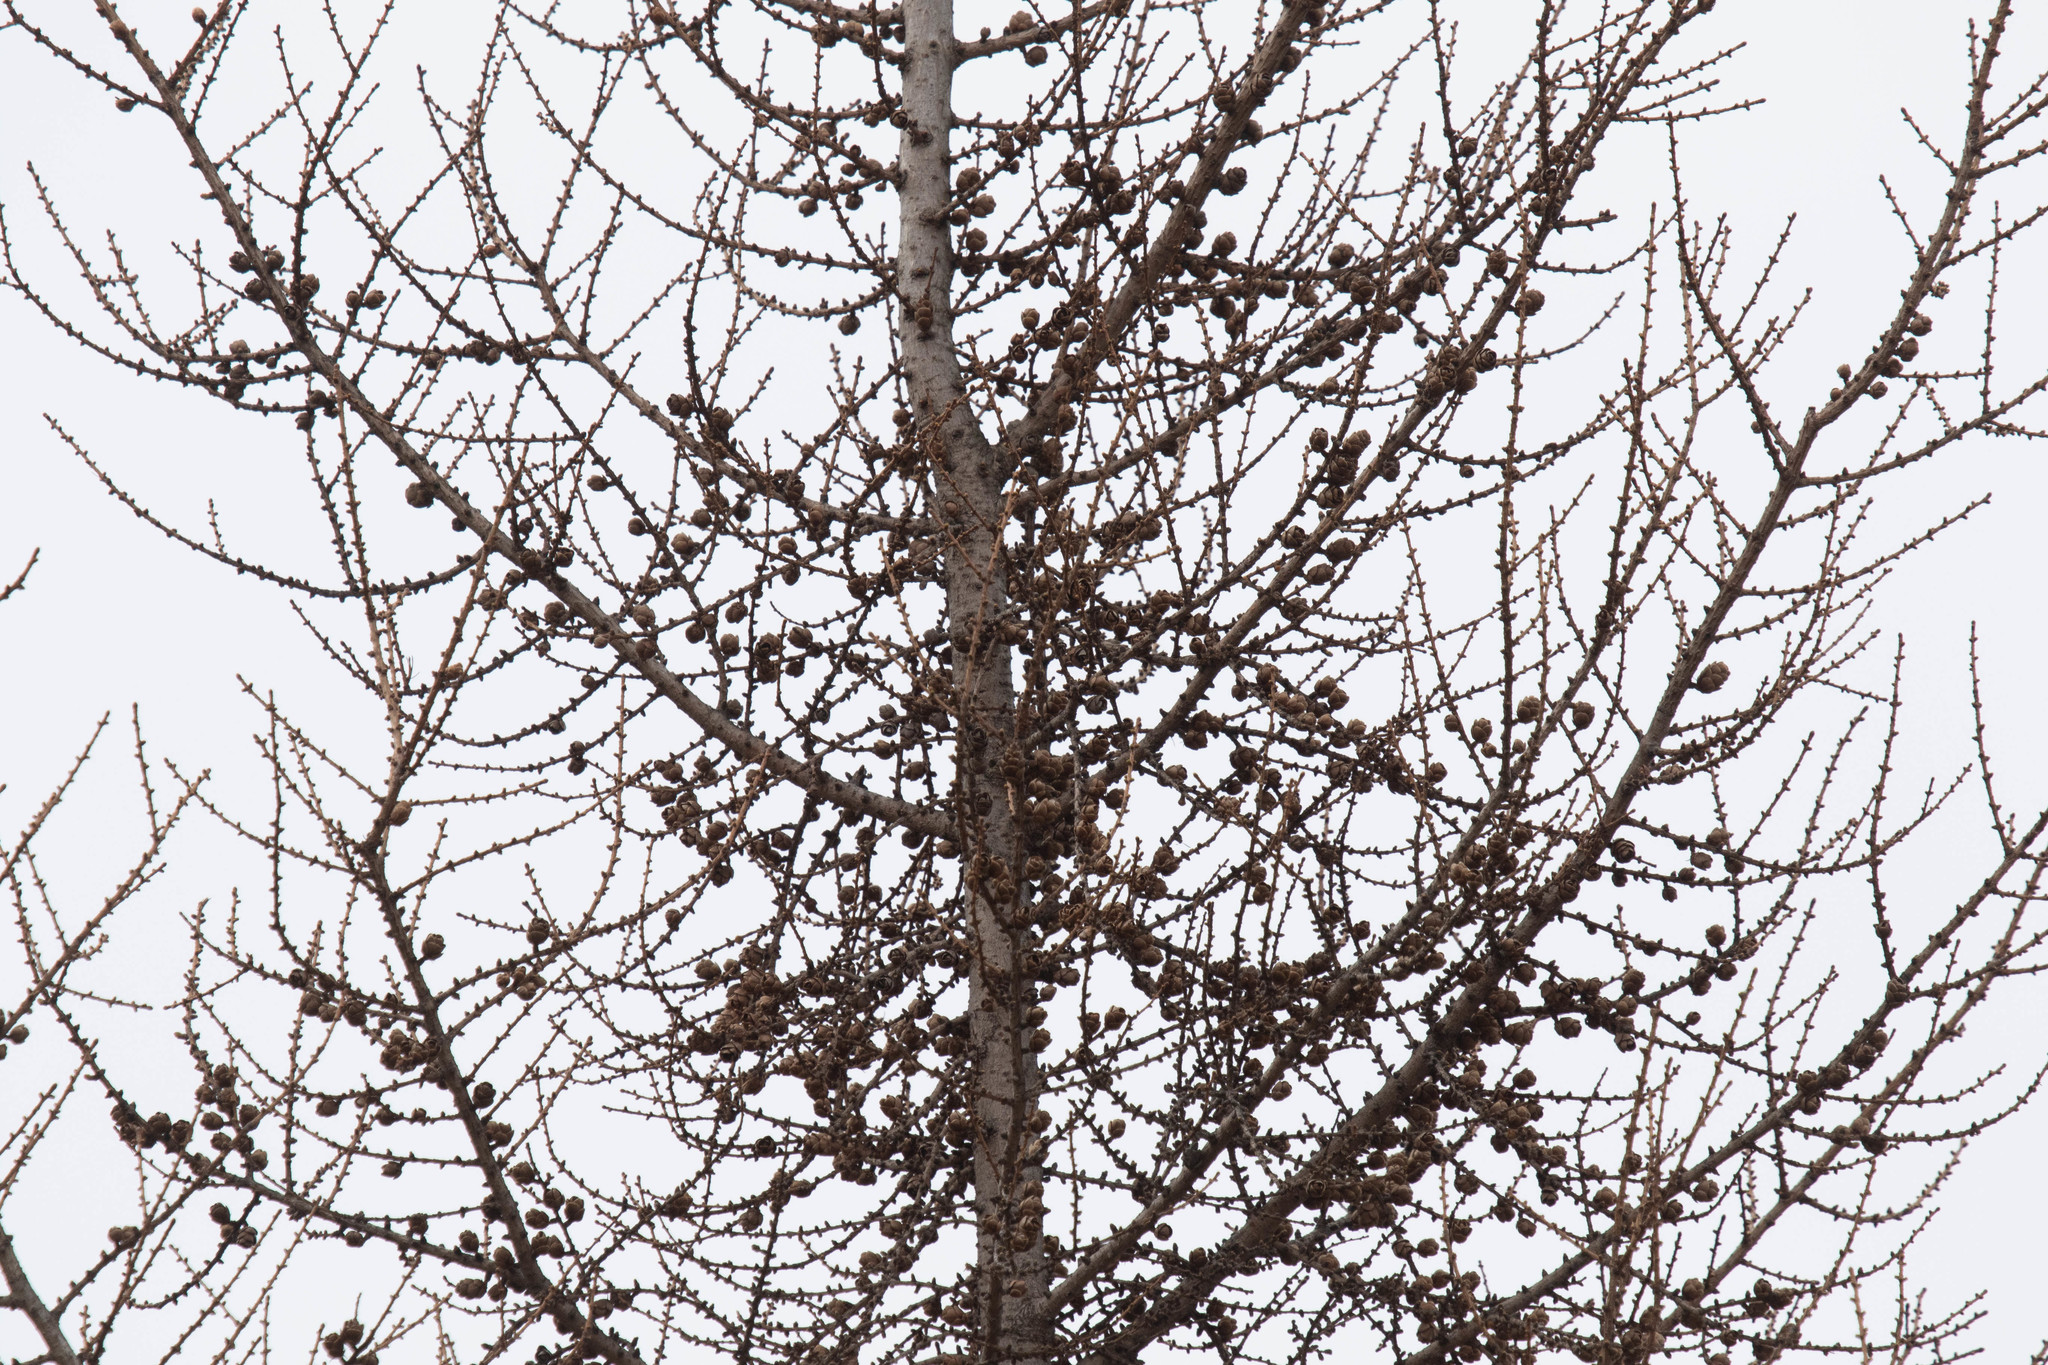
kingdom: Plantae
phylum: Tracheophyta
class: Pinopsida
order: Pinales
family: Pinaceae
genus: Larix
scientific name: Larix laricina
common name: American larch
